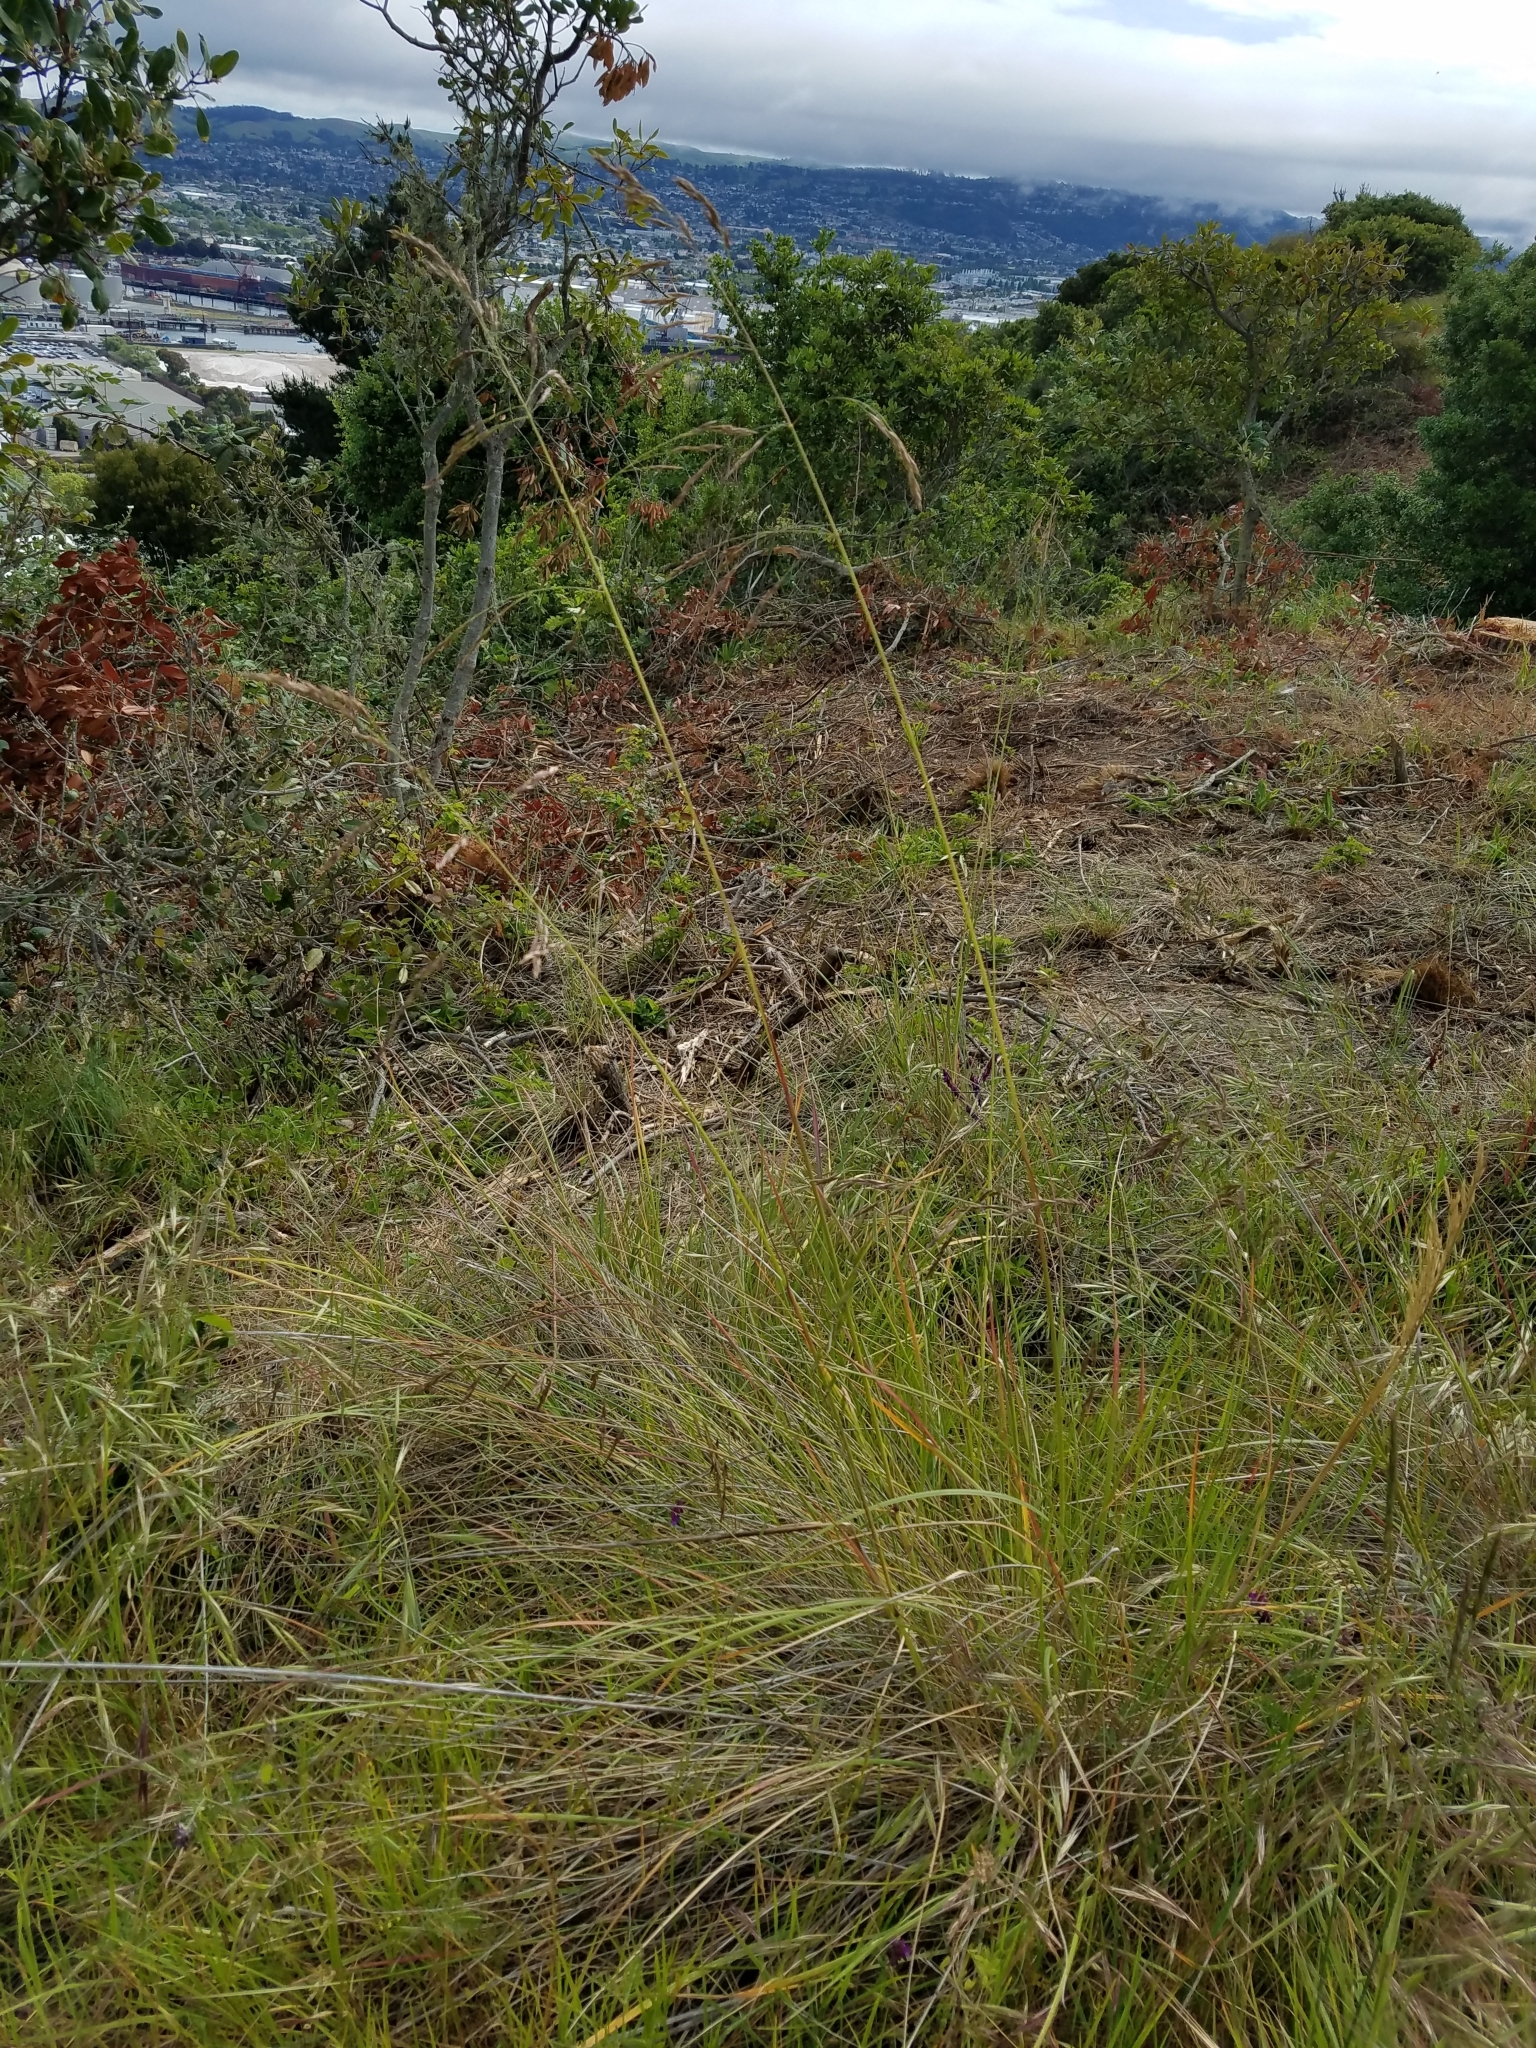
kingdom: Plantae
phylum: Tracheophyta
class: Liliopsida
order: Poales
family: Poaceae
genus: Festuca
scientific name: Festuca californica
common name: California fescue
